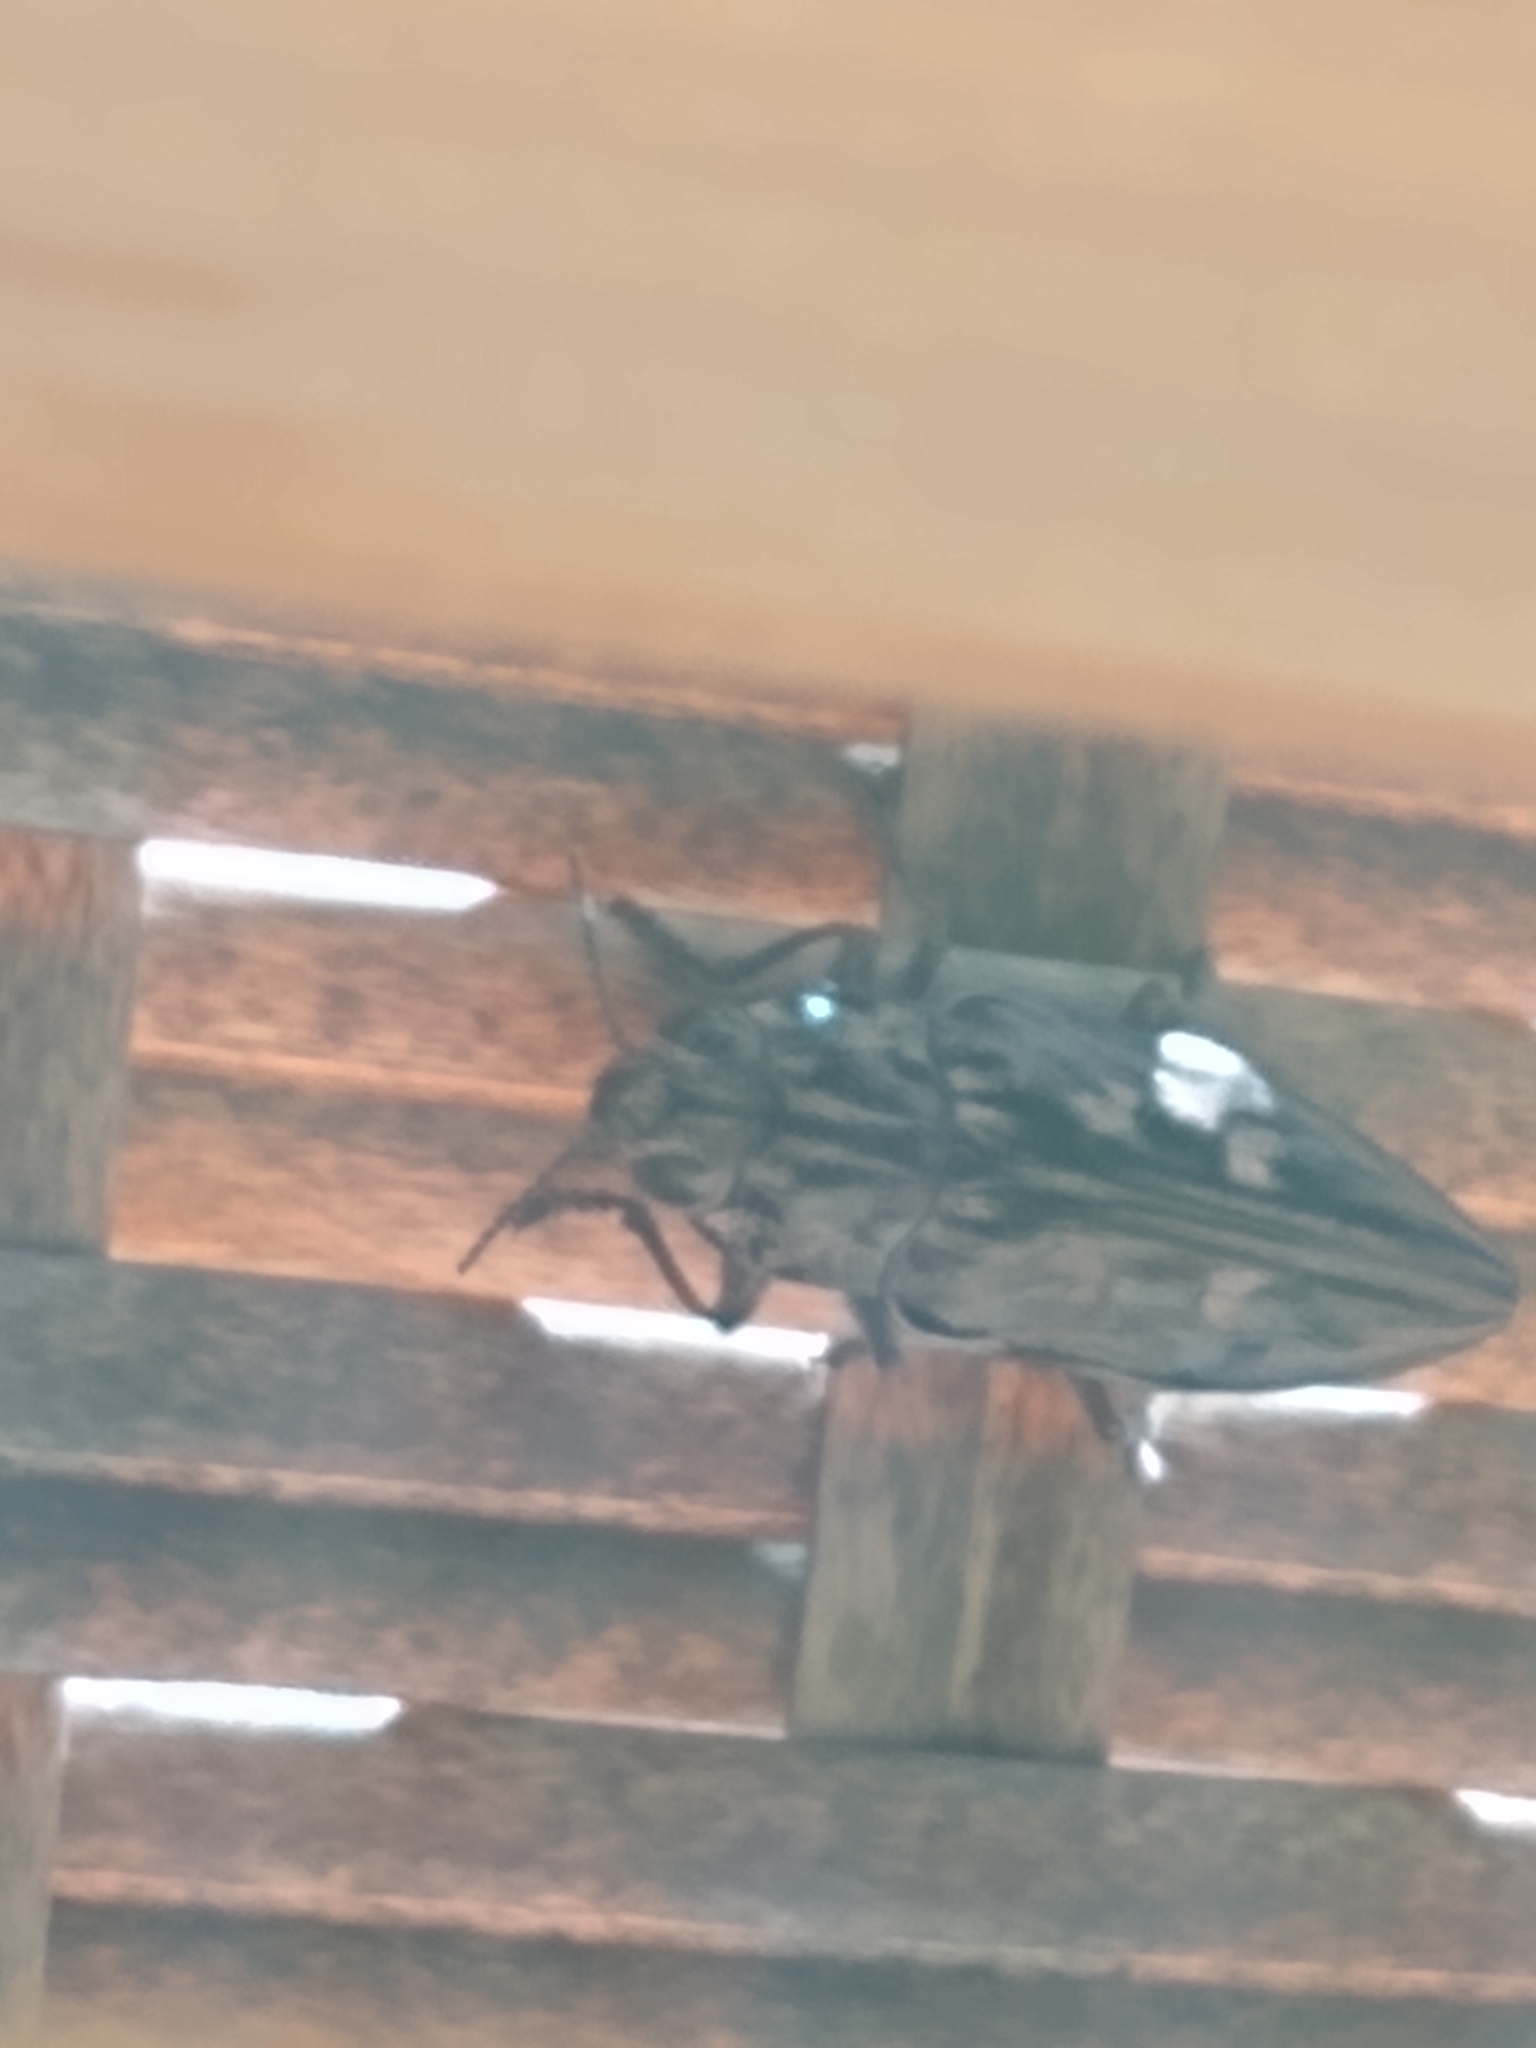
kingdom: Animalia
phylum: Arthropoda
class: Insecta
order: Coleoptera
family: Buprestidae
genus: Chalcophora
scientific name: Chalcophora angulicollis
